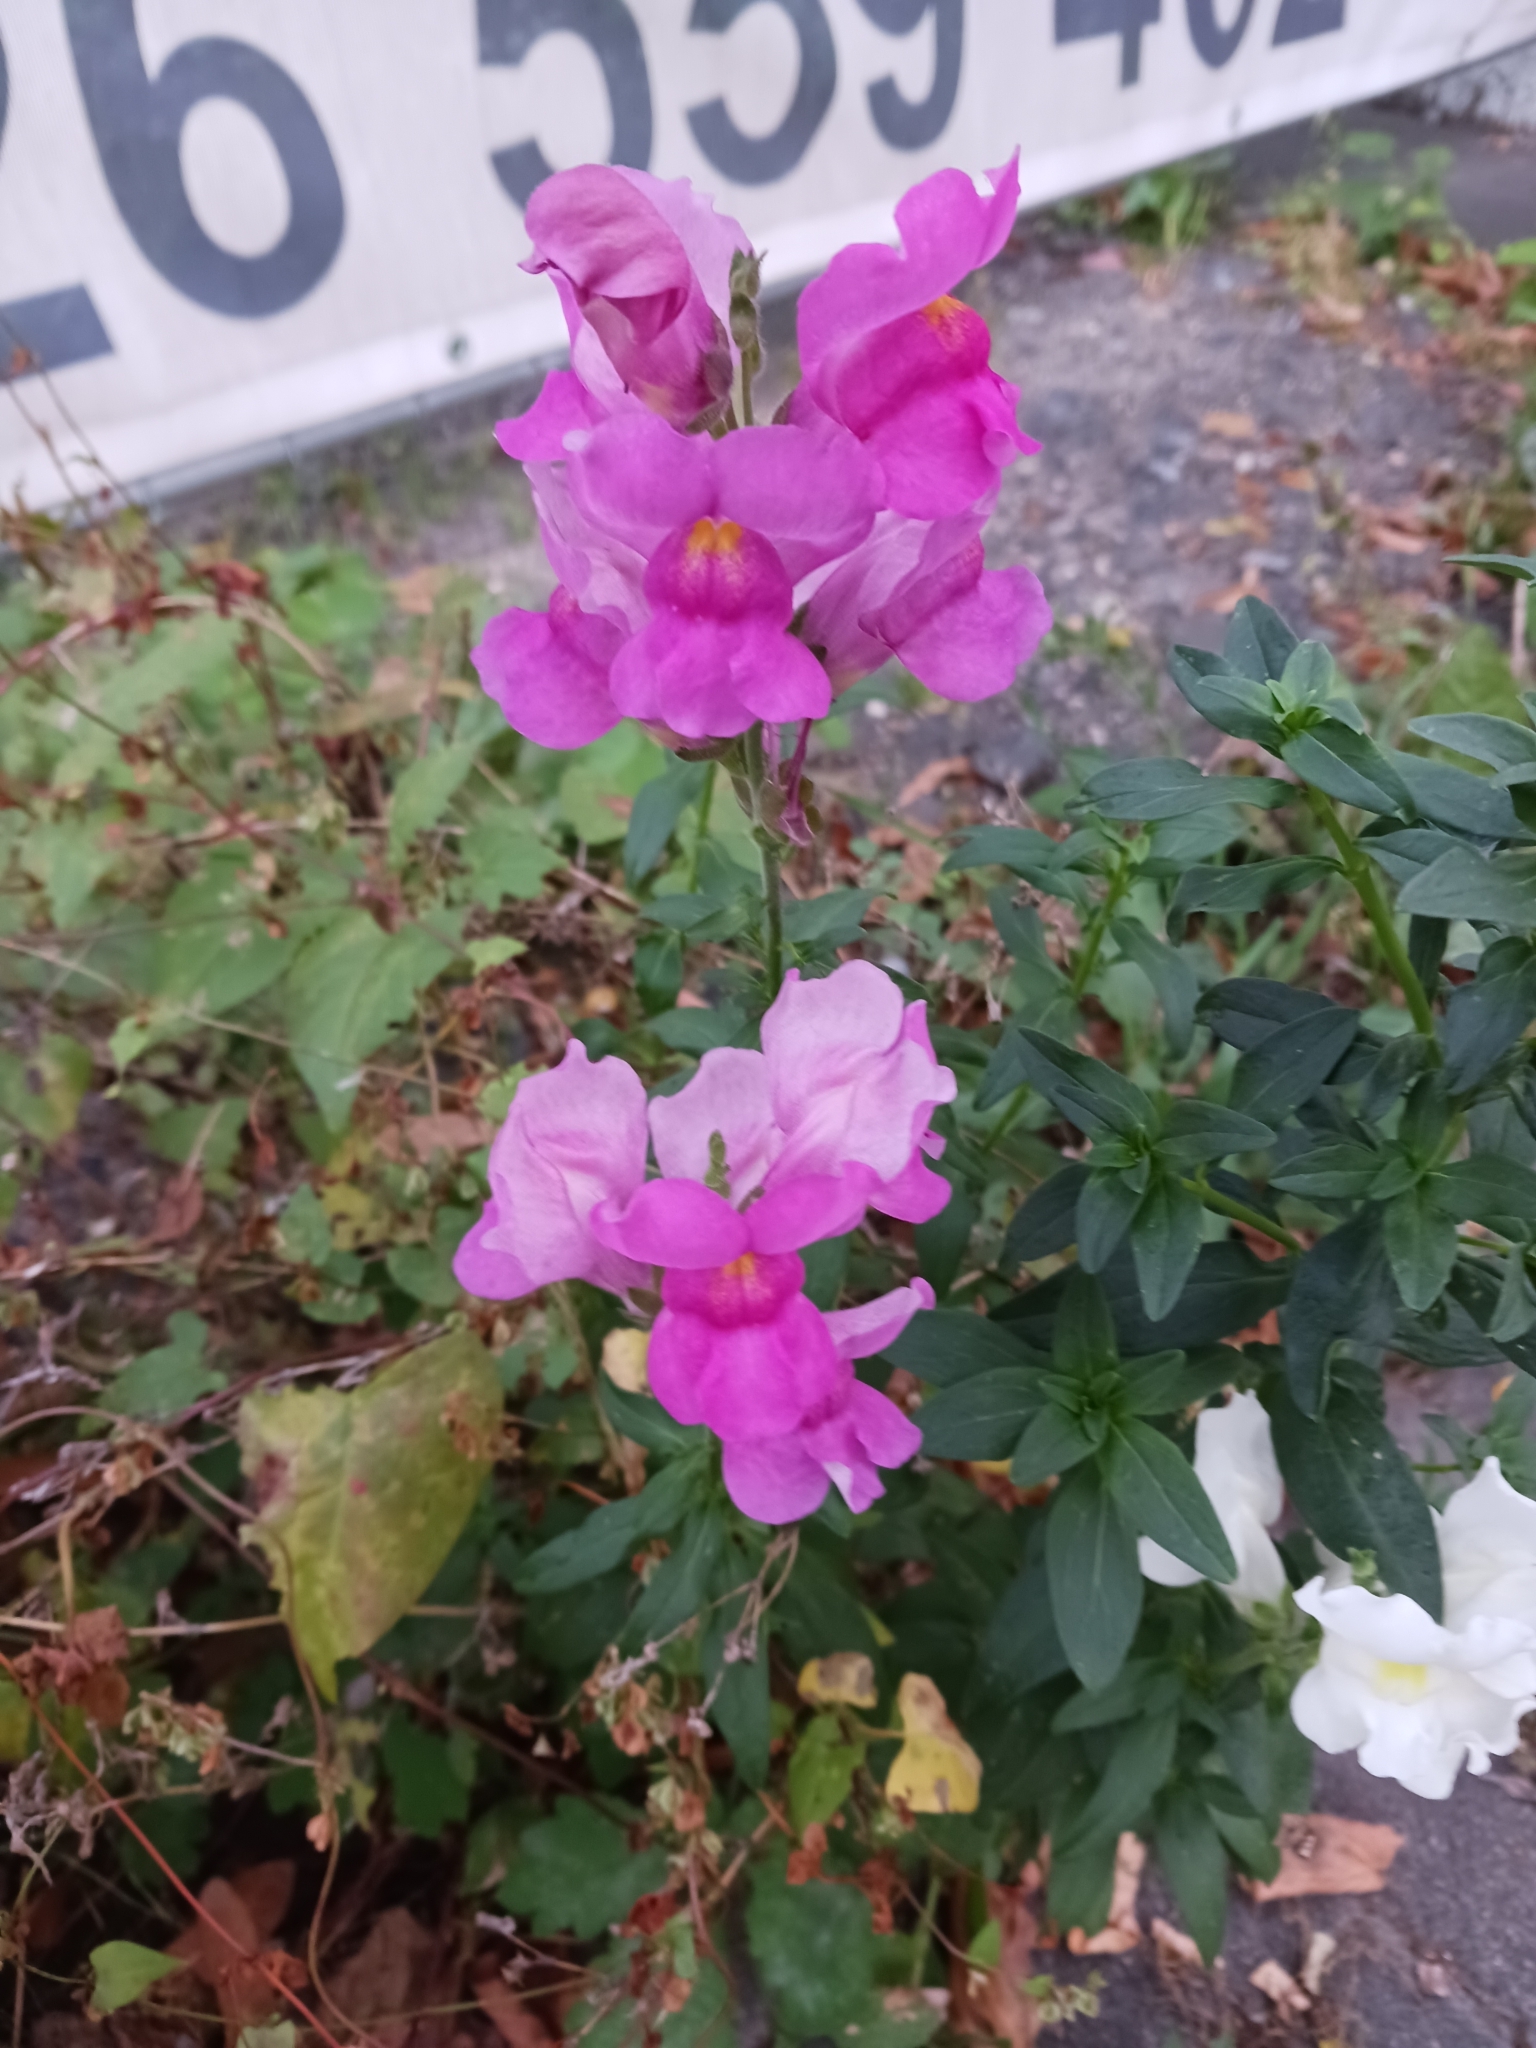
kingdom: Plantae
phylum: Tracheophyta
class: Magnoliopsida
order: Lamiales
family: Plantaginaceae
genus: Antirrhinum
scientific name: Antirrhinum majus
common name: Snapdragon
